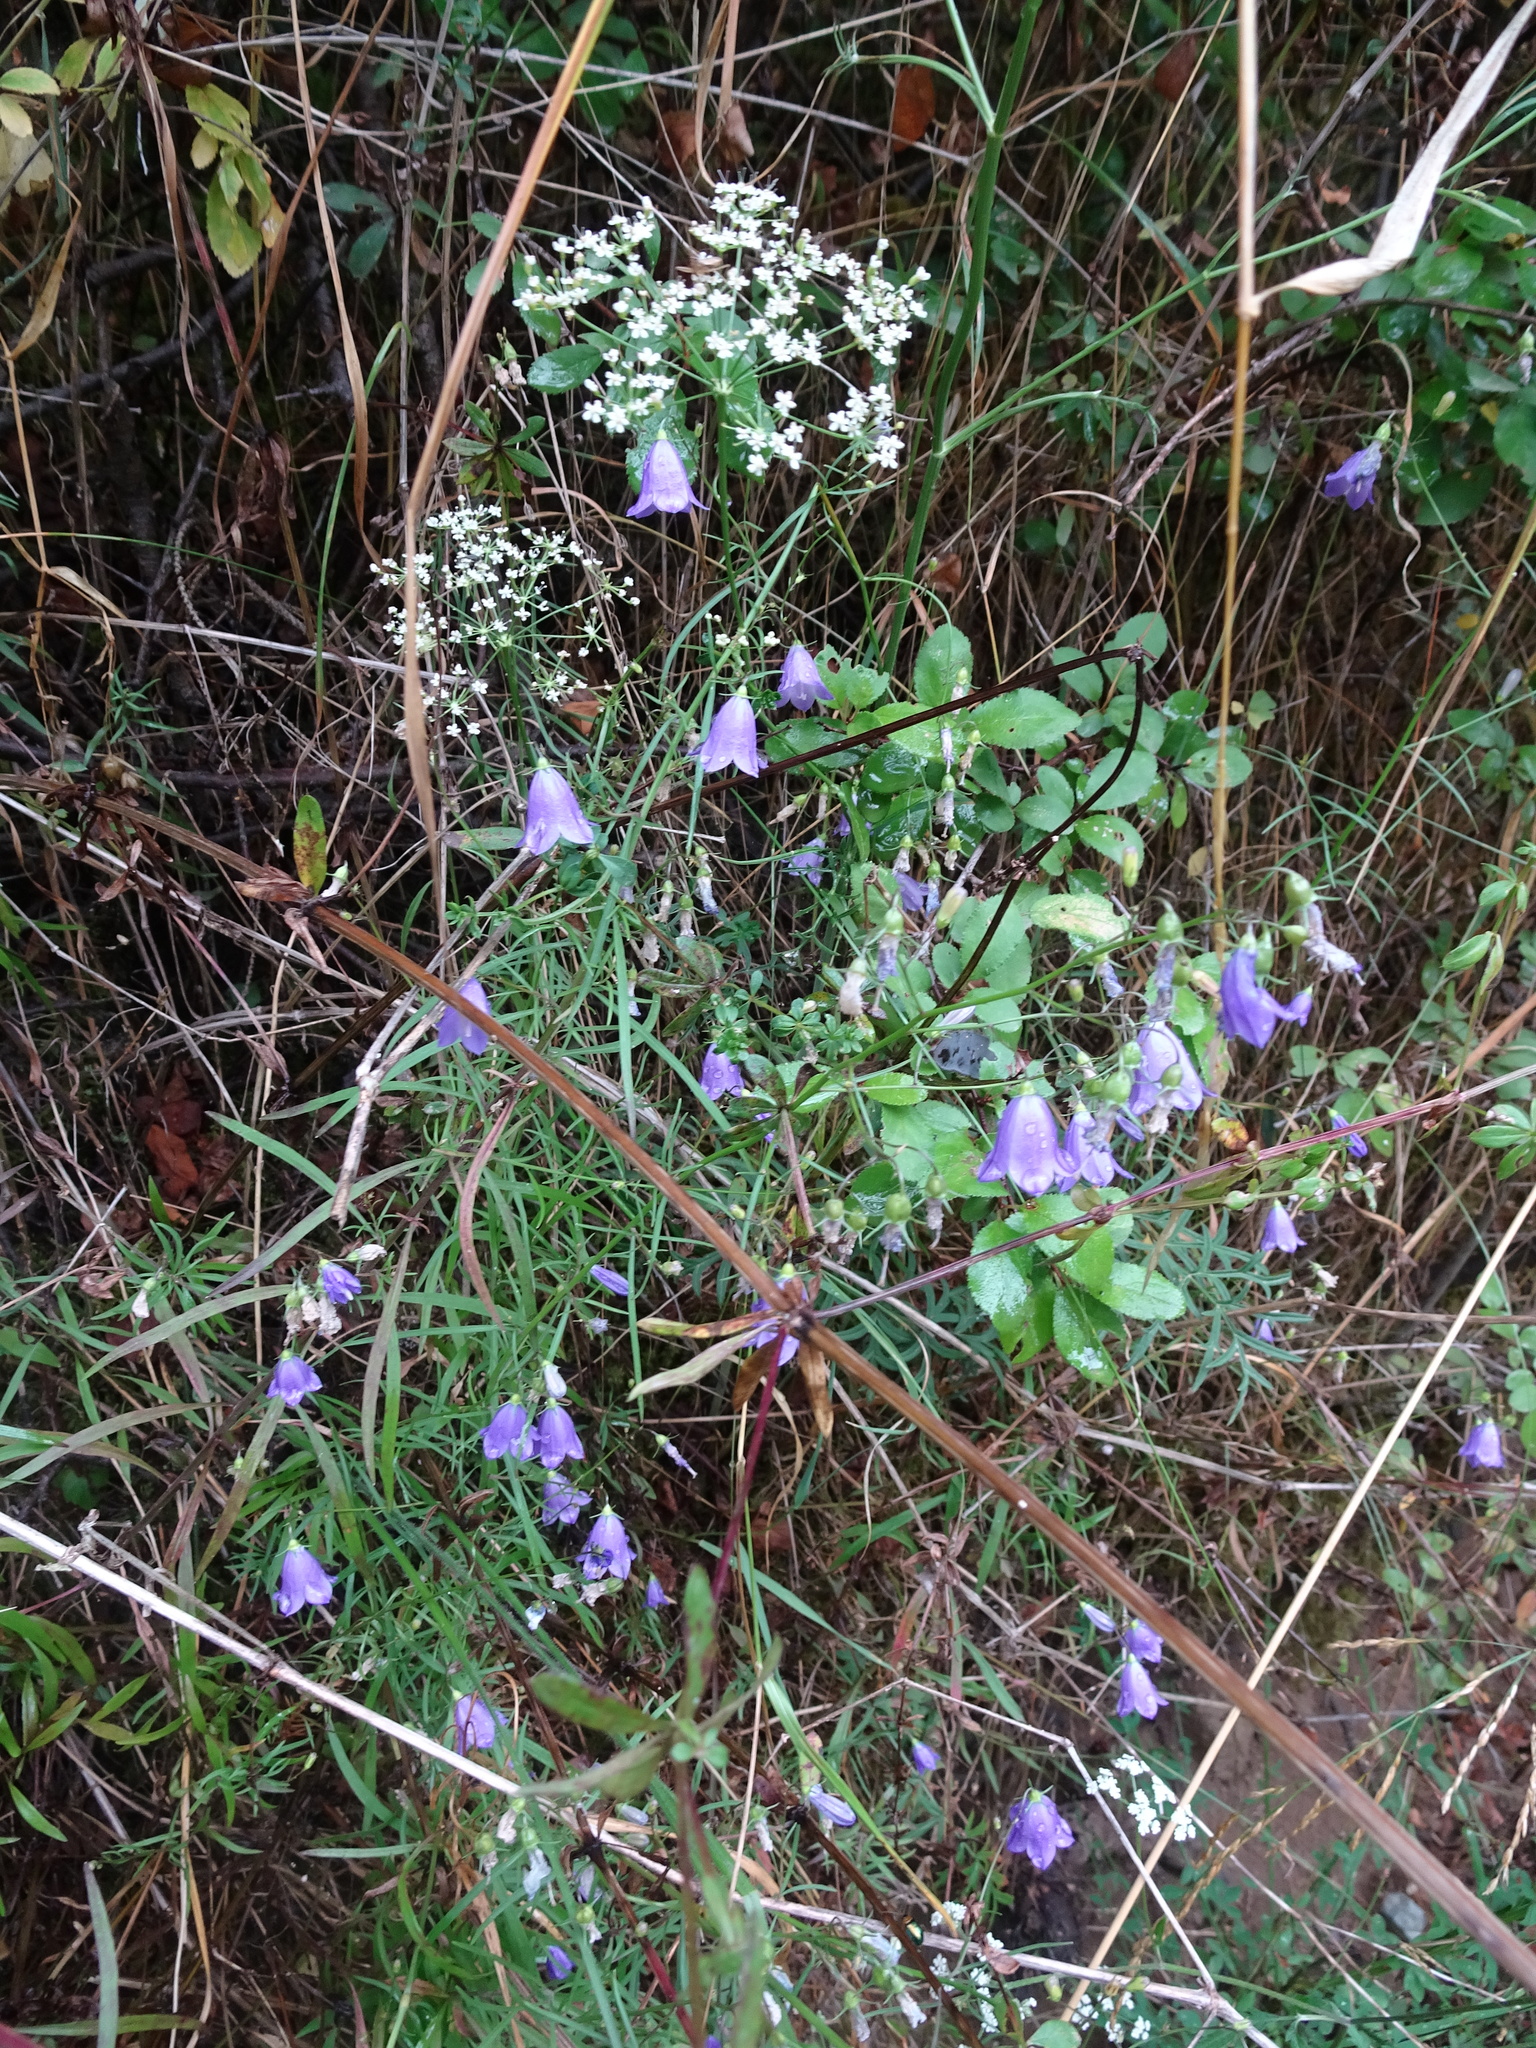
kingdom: Plantae
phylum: Tracheophyta
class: Magnoliopsida
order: Asterales
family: Campanulaceae
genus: Campanula
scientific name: Campanula rotundifolia
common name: Harebell
